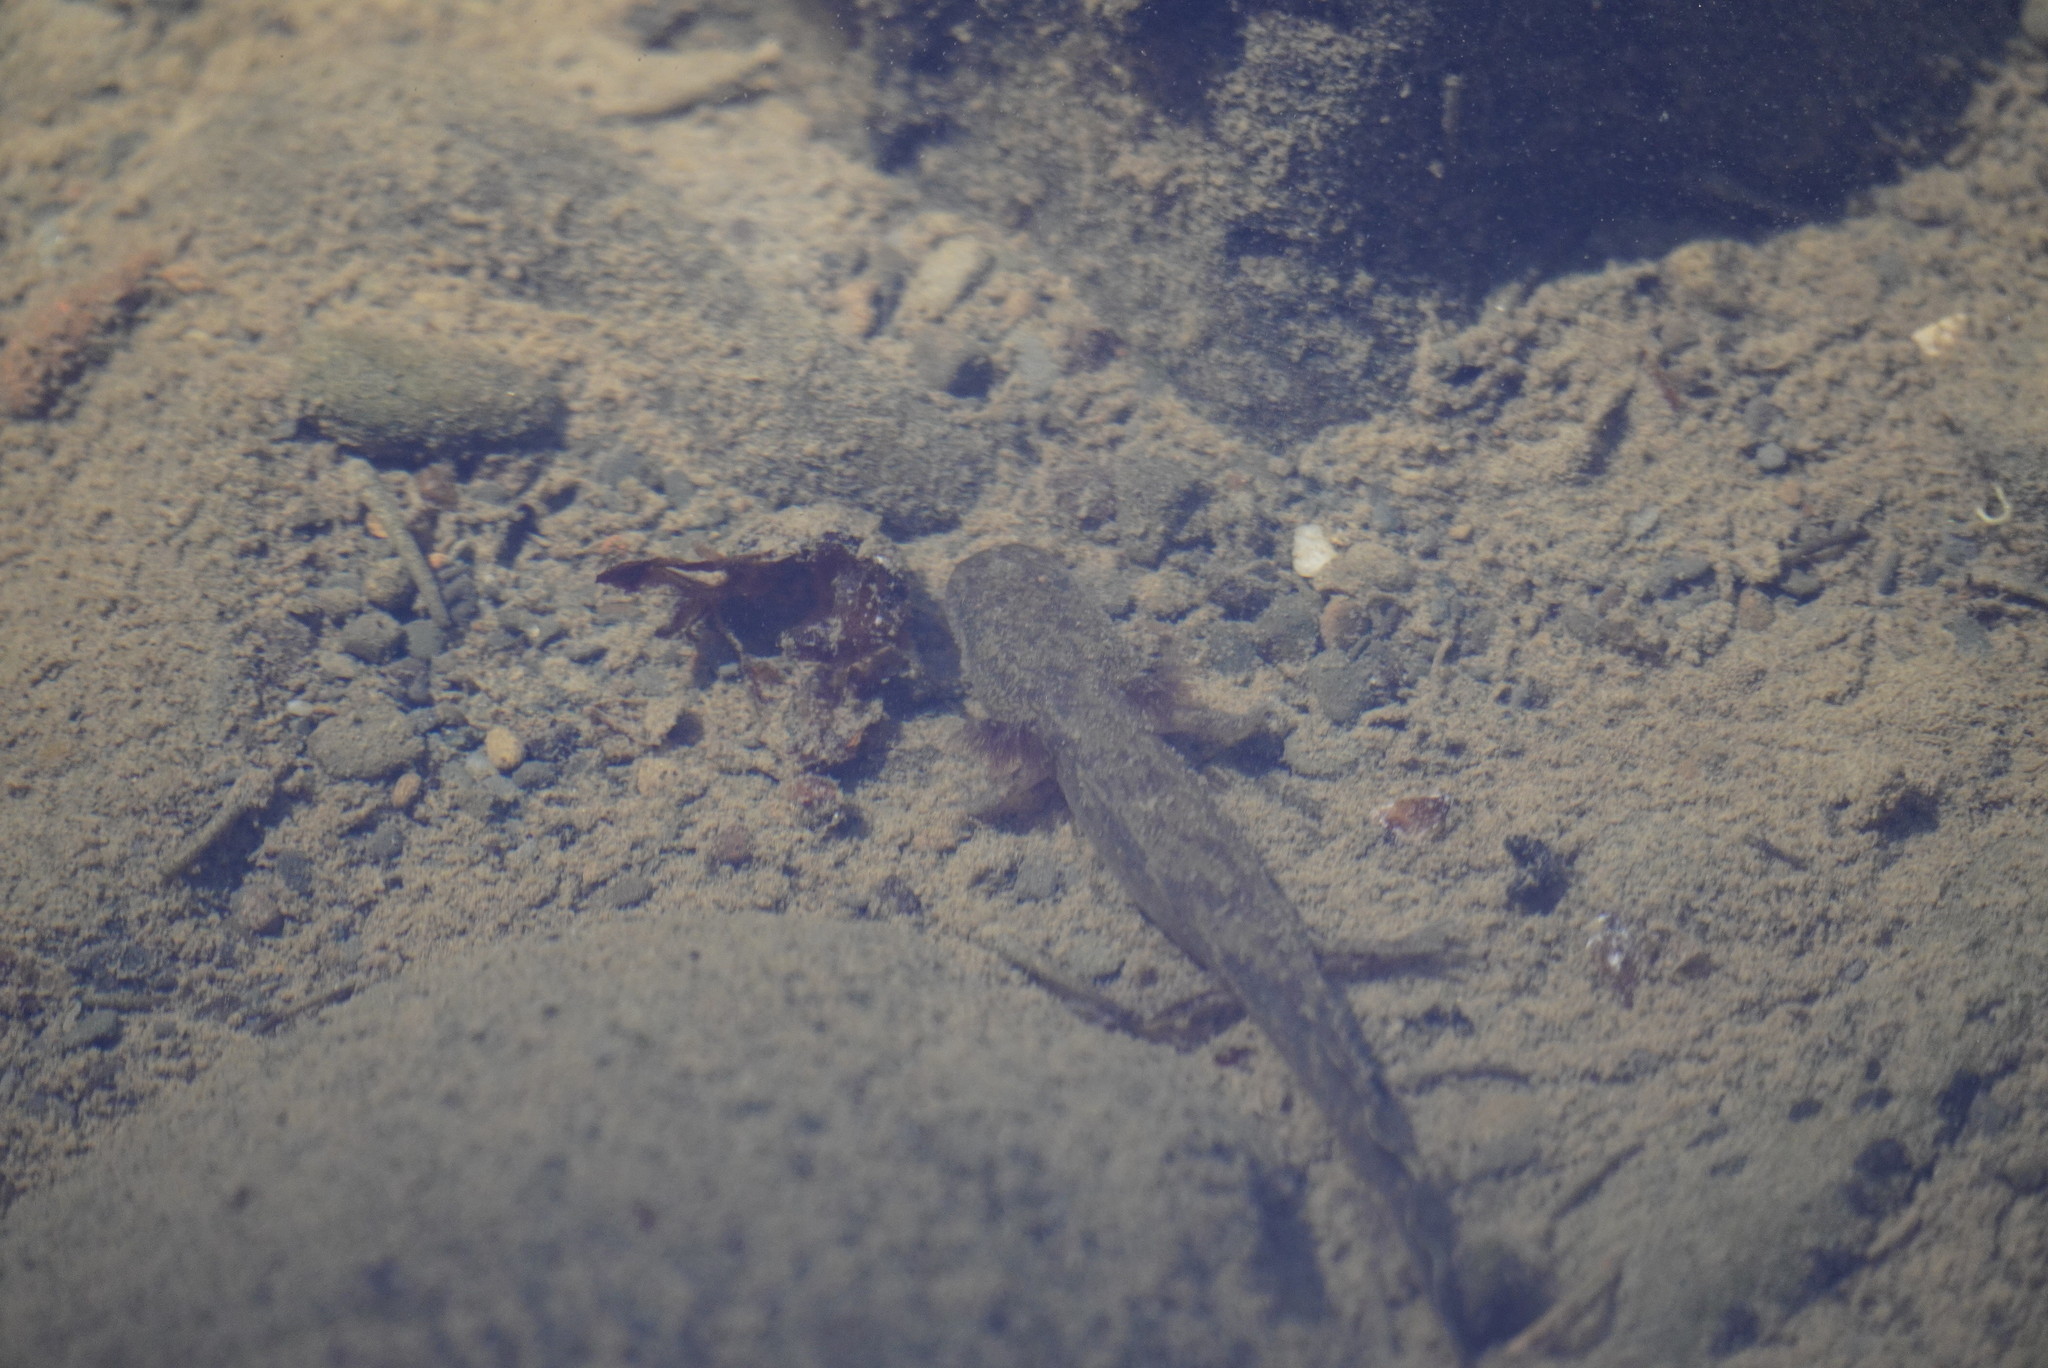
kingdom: Animalia
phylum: Chordata
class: Amphibia
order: Caudata
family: Ambystomatidae
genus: Dicamptodon
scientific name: Dicamptodon tenebrosus
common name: Coastal giant salamander
